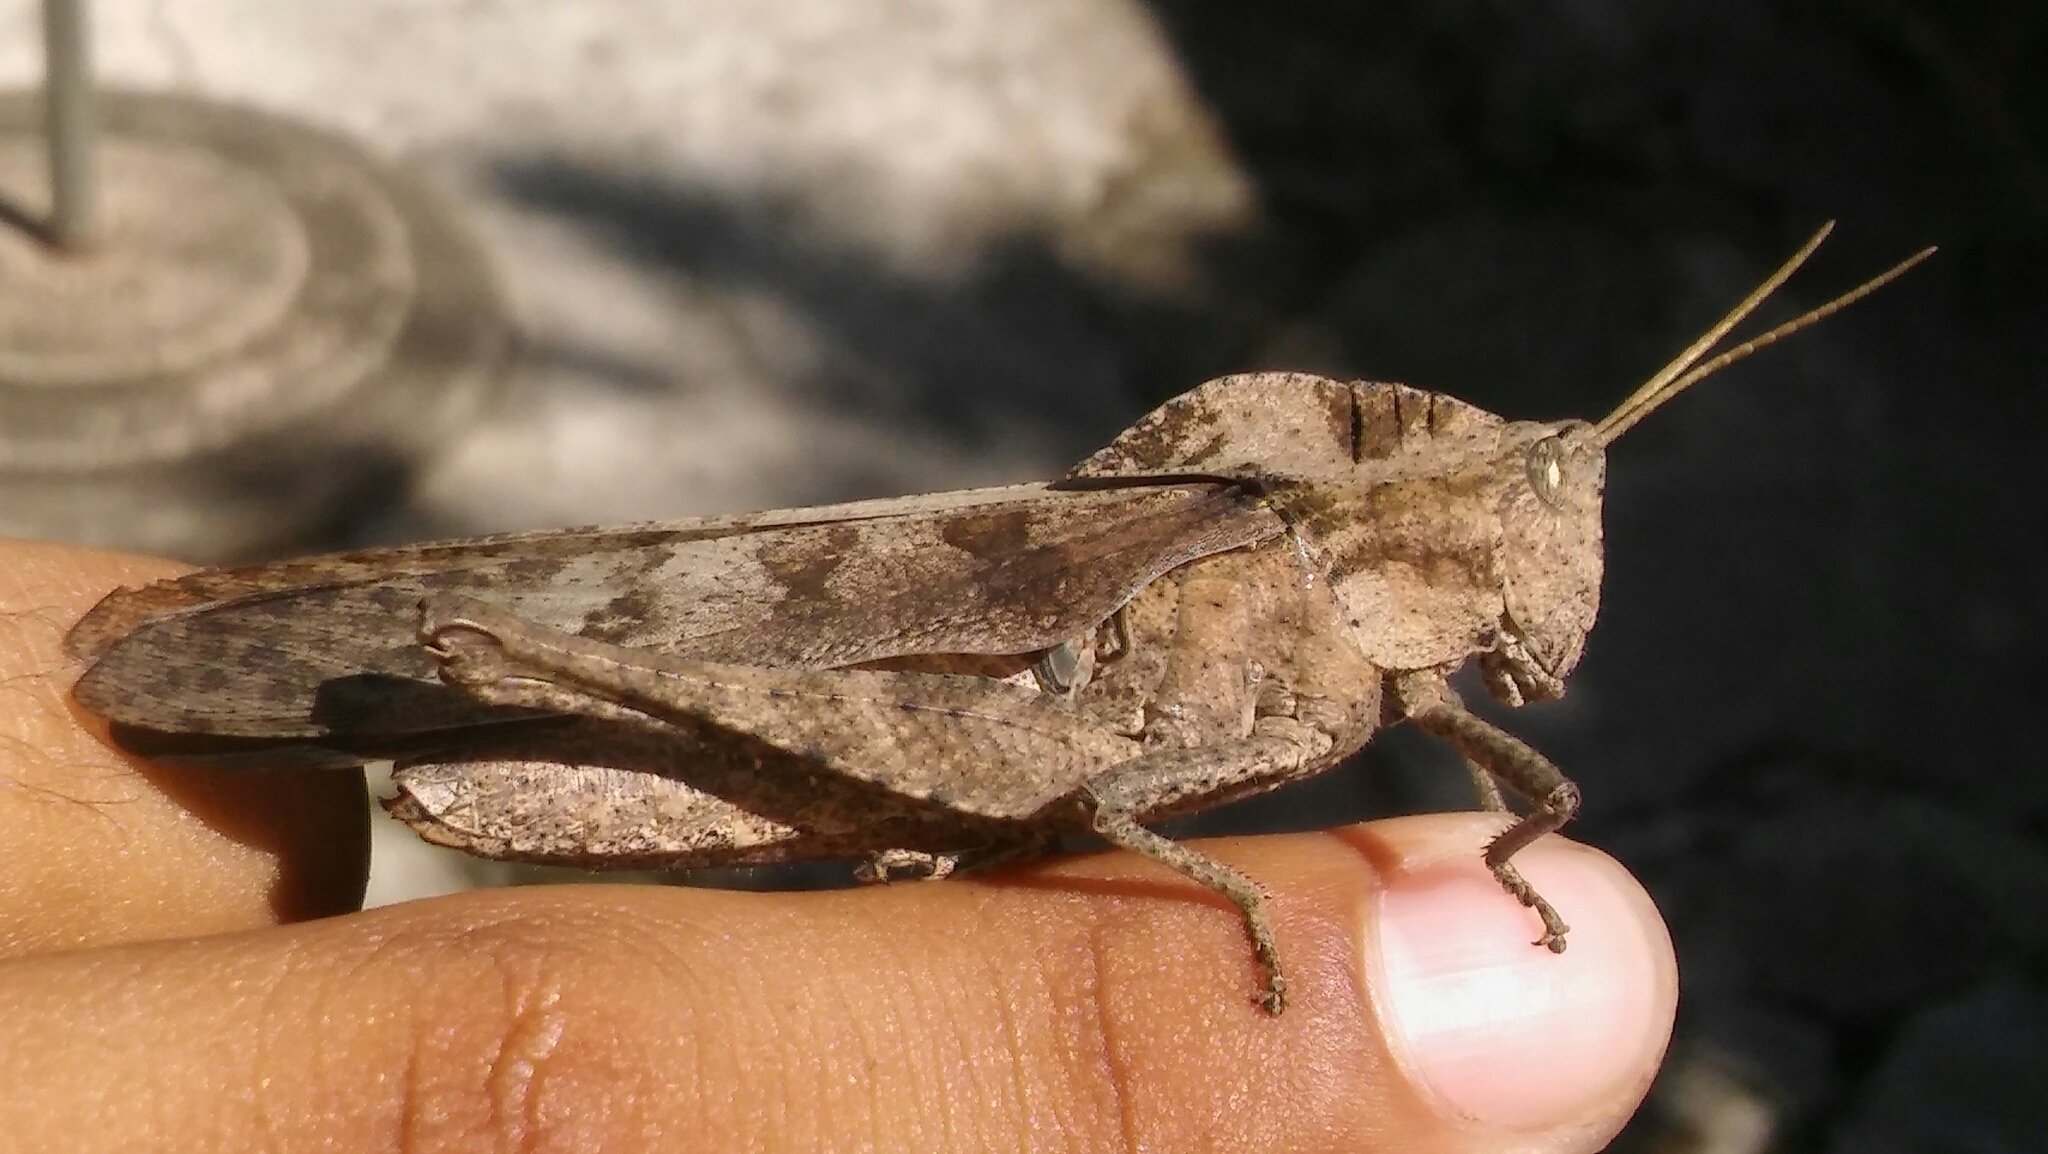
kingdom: Animalia
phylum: Arthropoda
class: Insecta
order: Orthoptera
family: Romaleidae
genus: Xyleus
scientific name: Xyleus discoideus
